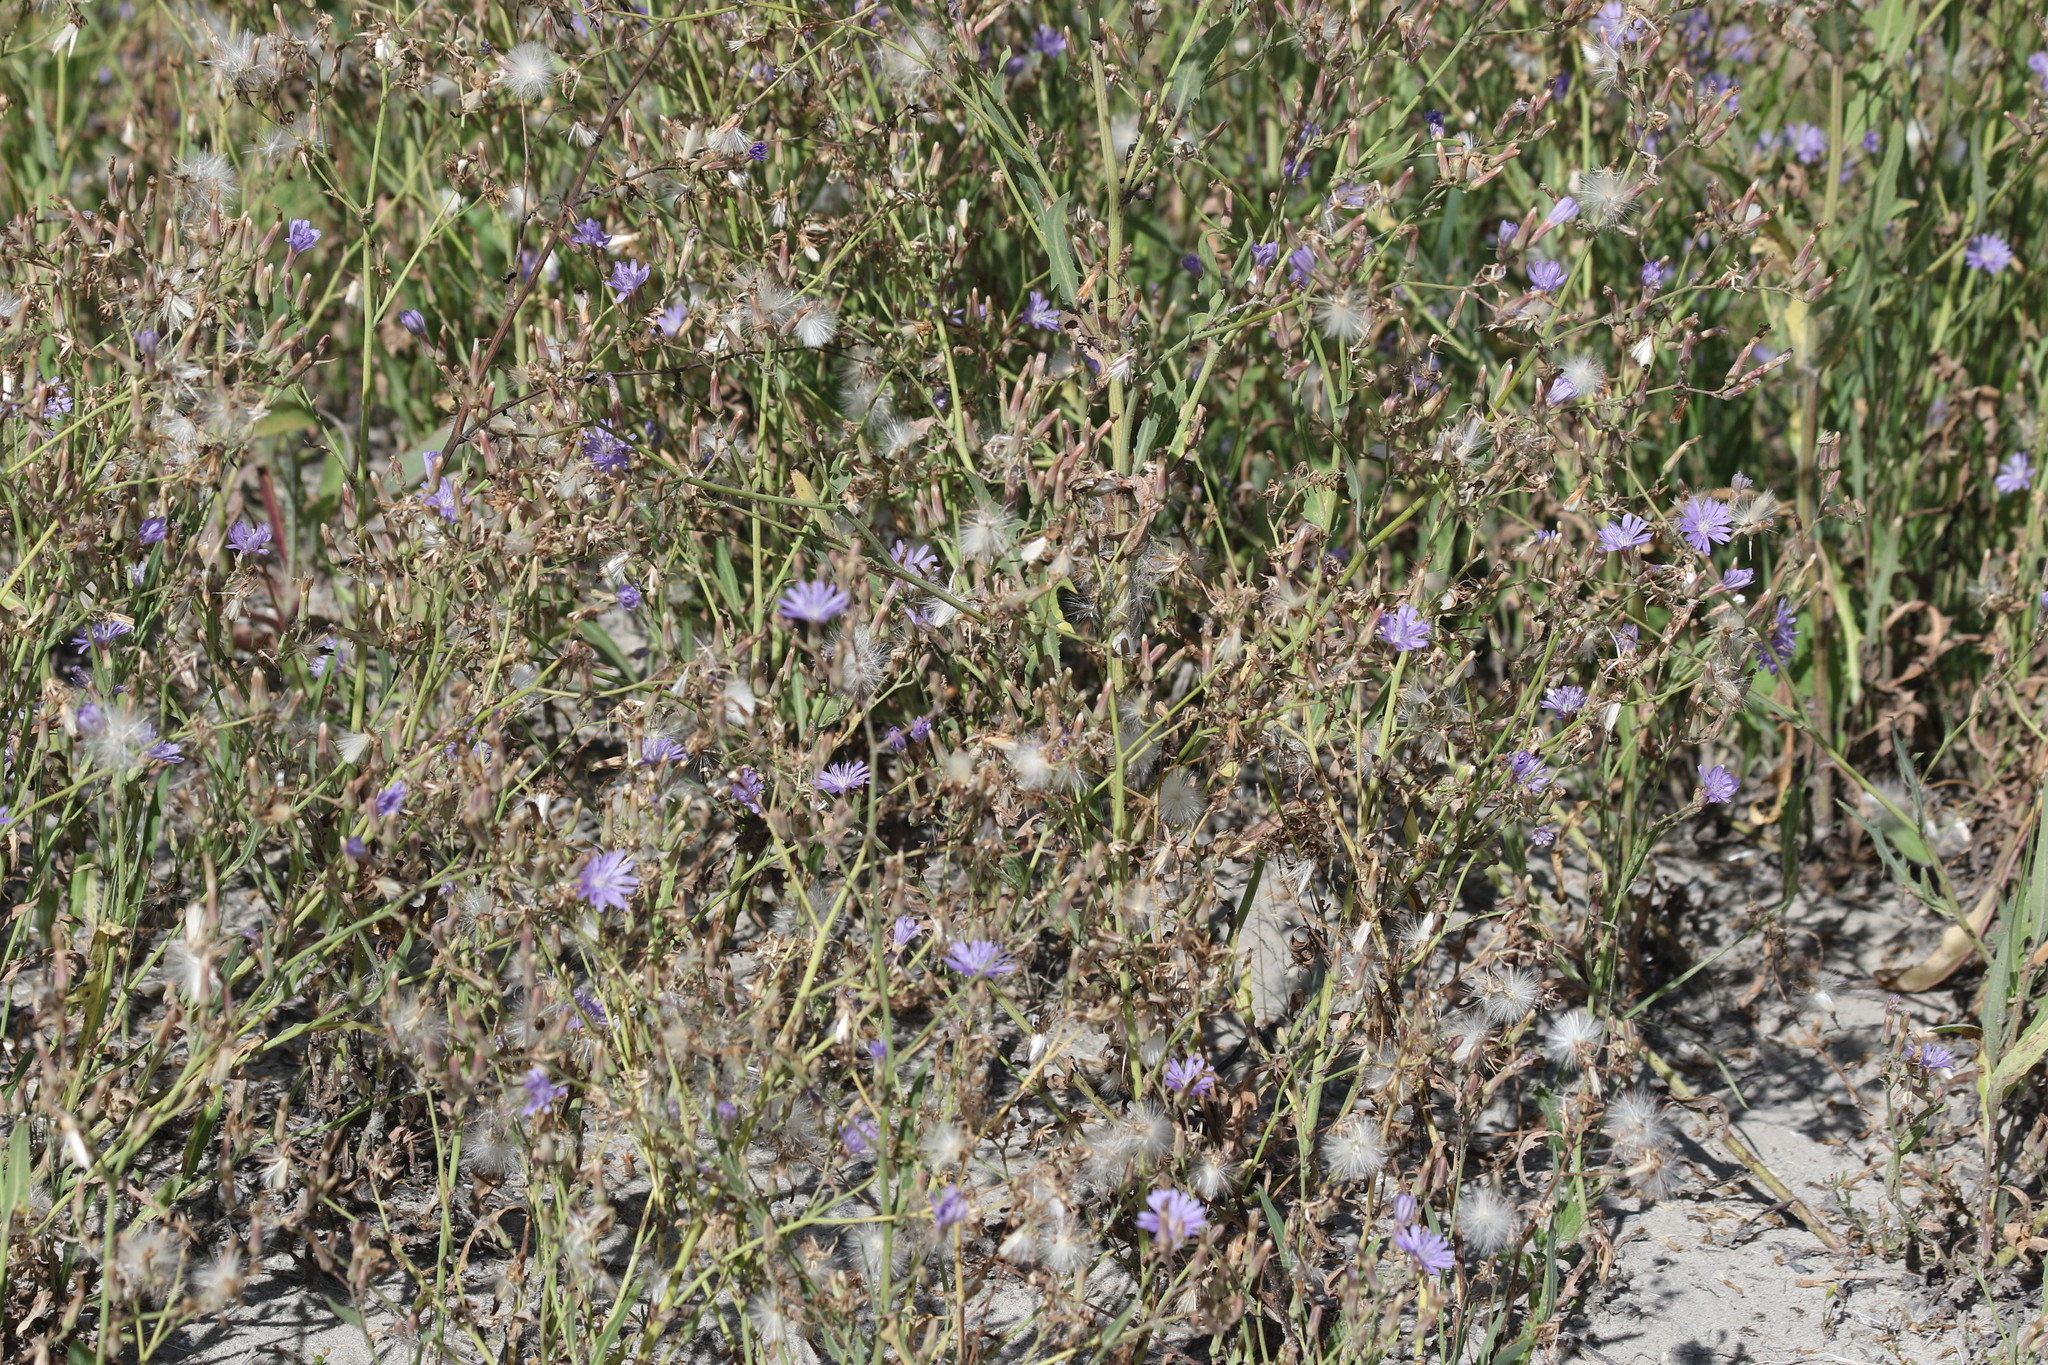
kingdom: Plantae
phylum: Tracheophyta
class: Magnoliopsida
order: Asterales
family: Asteraceae
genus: Lactuca
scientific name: Lactuca tatarica
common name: Blue lettuce
